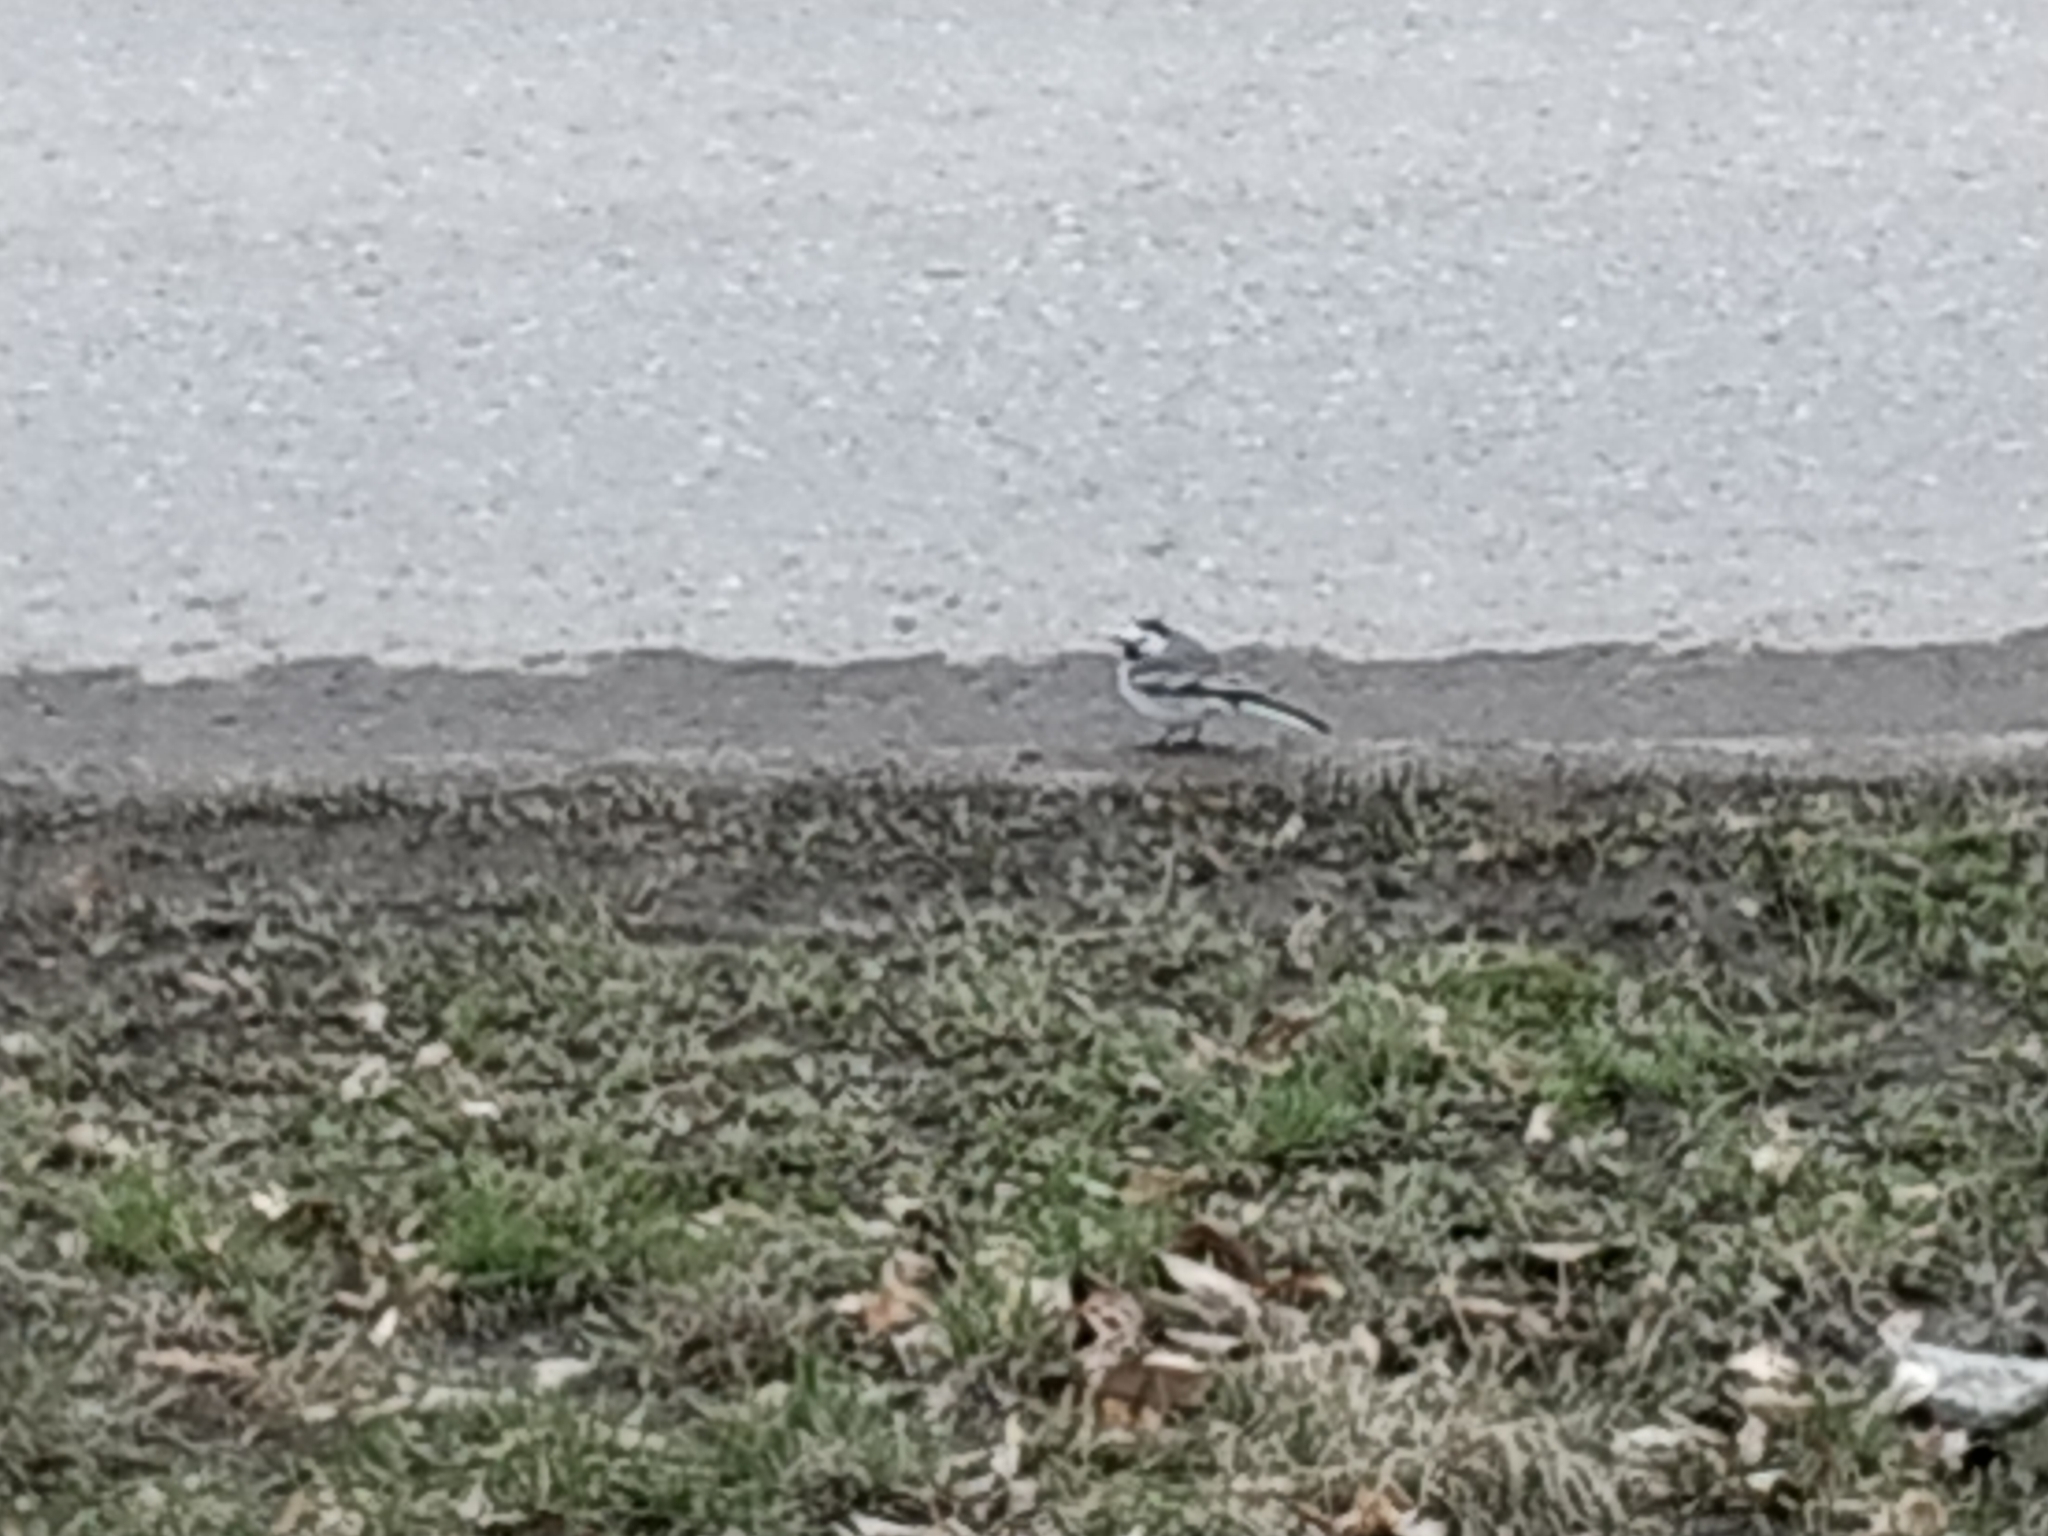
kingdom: Animalia
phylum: Chordata
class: Aves
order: Passeriformes
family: Motacillidae
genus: Motacilla
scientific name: Motacilla alba
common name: White wagtail
